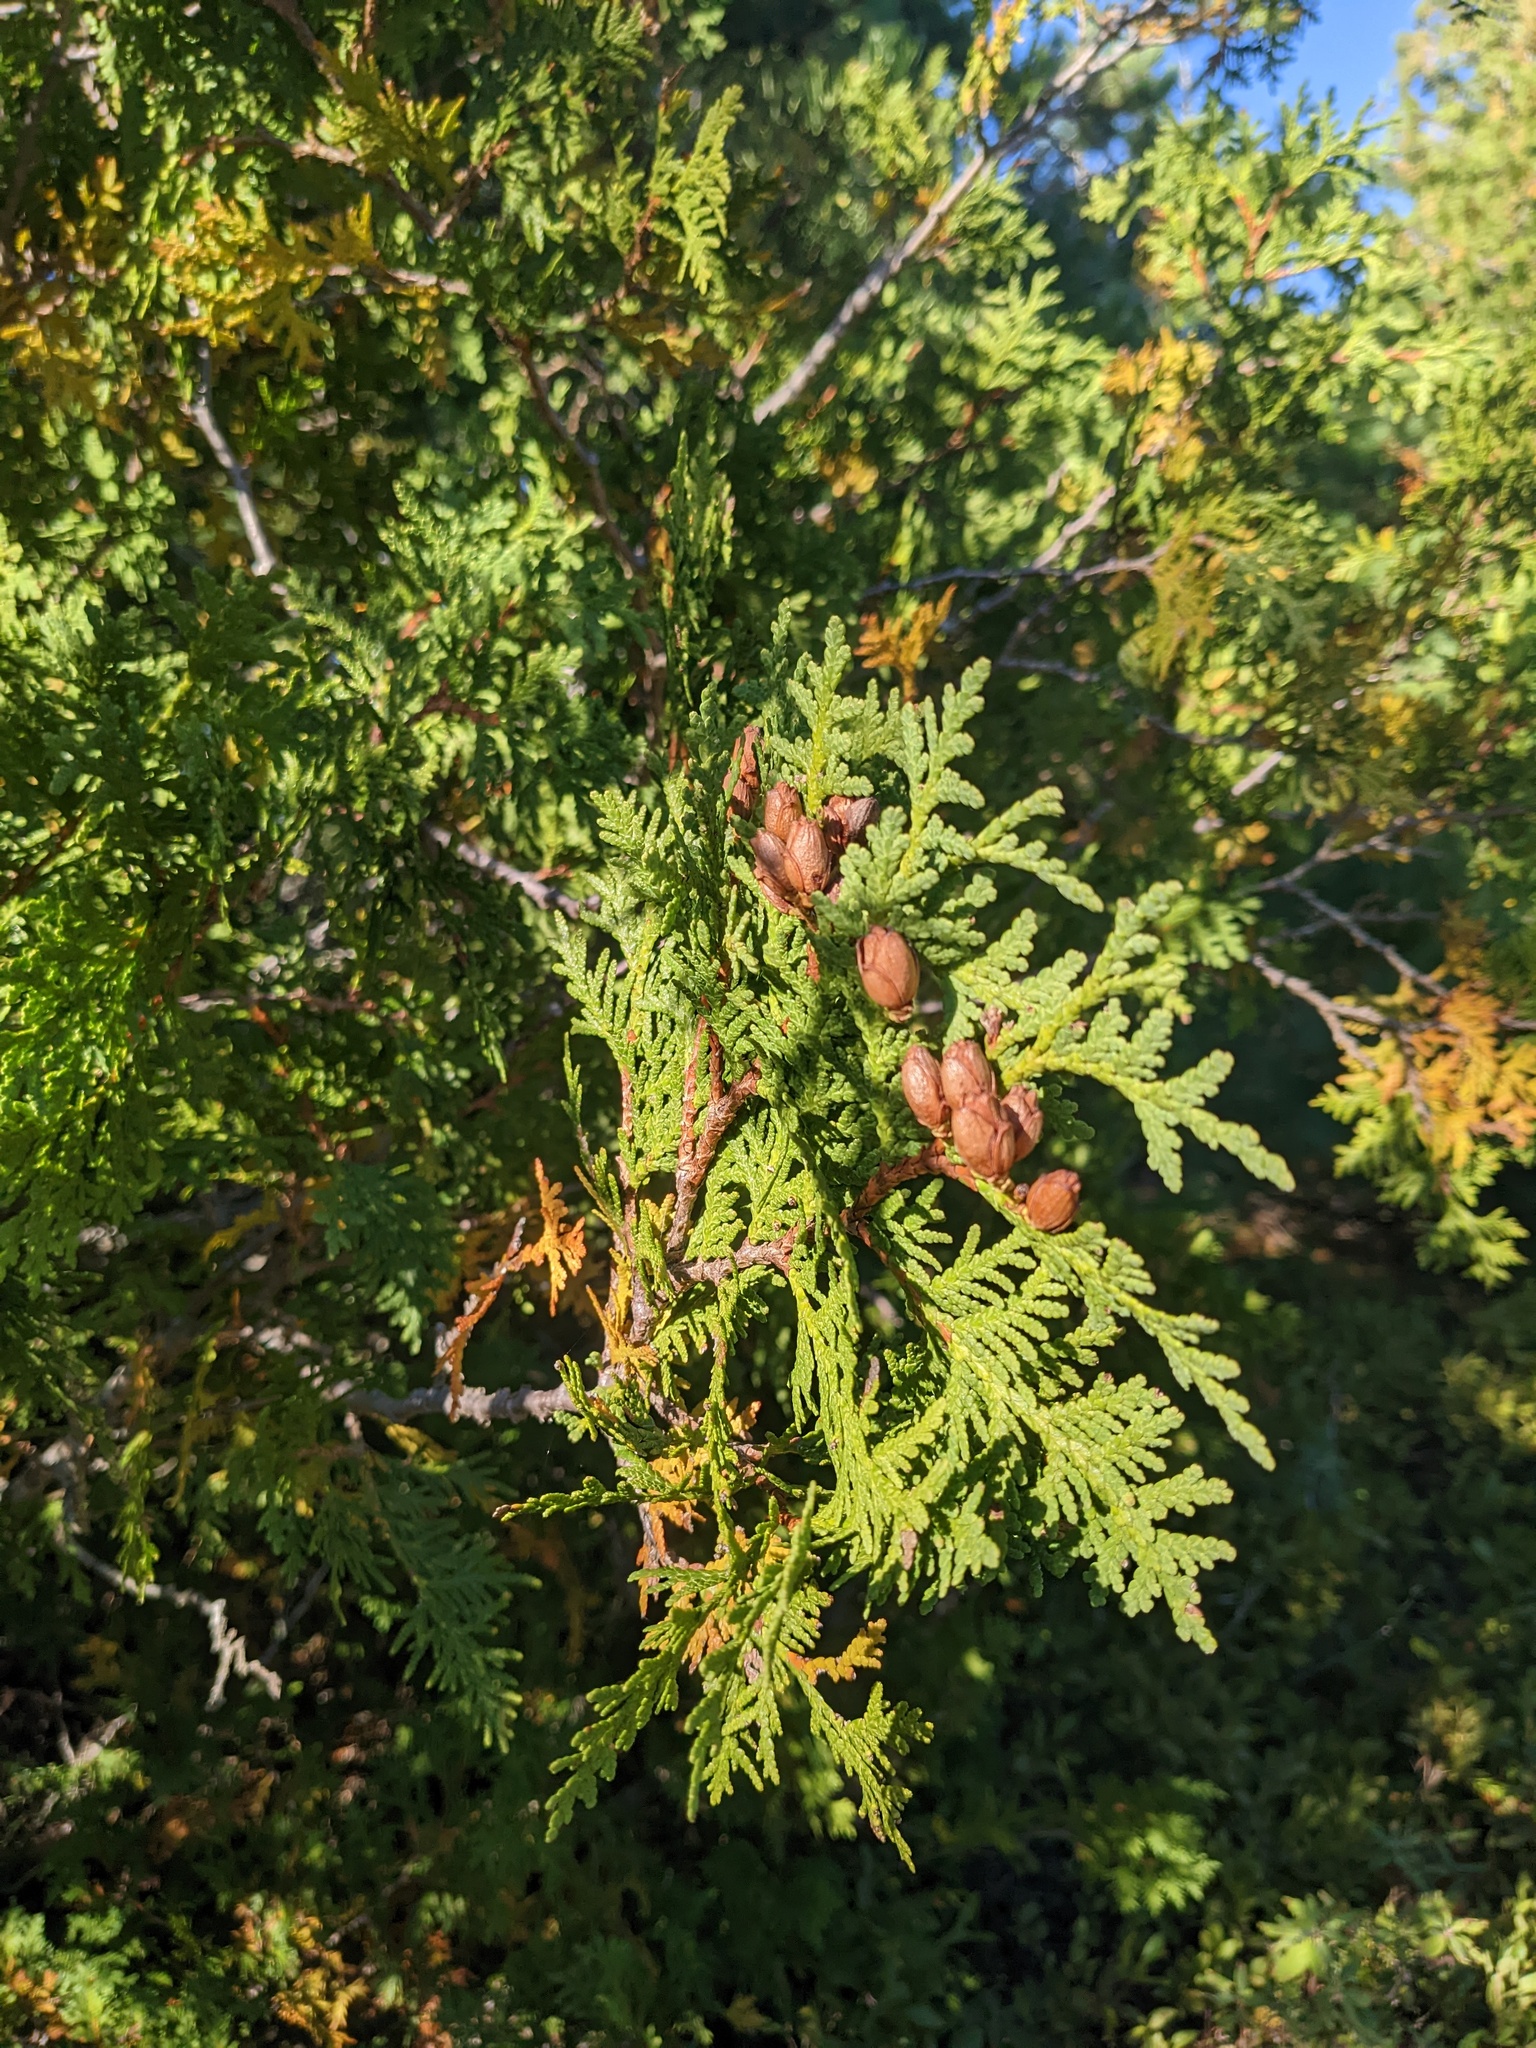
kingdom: Plantae
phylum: Tracheophyta
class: Pinopsida
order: Pinales
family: Cupressaceae
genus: Thuja
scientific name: Thuja occidentalis
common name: Northern white-cedar
